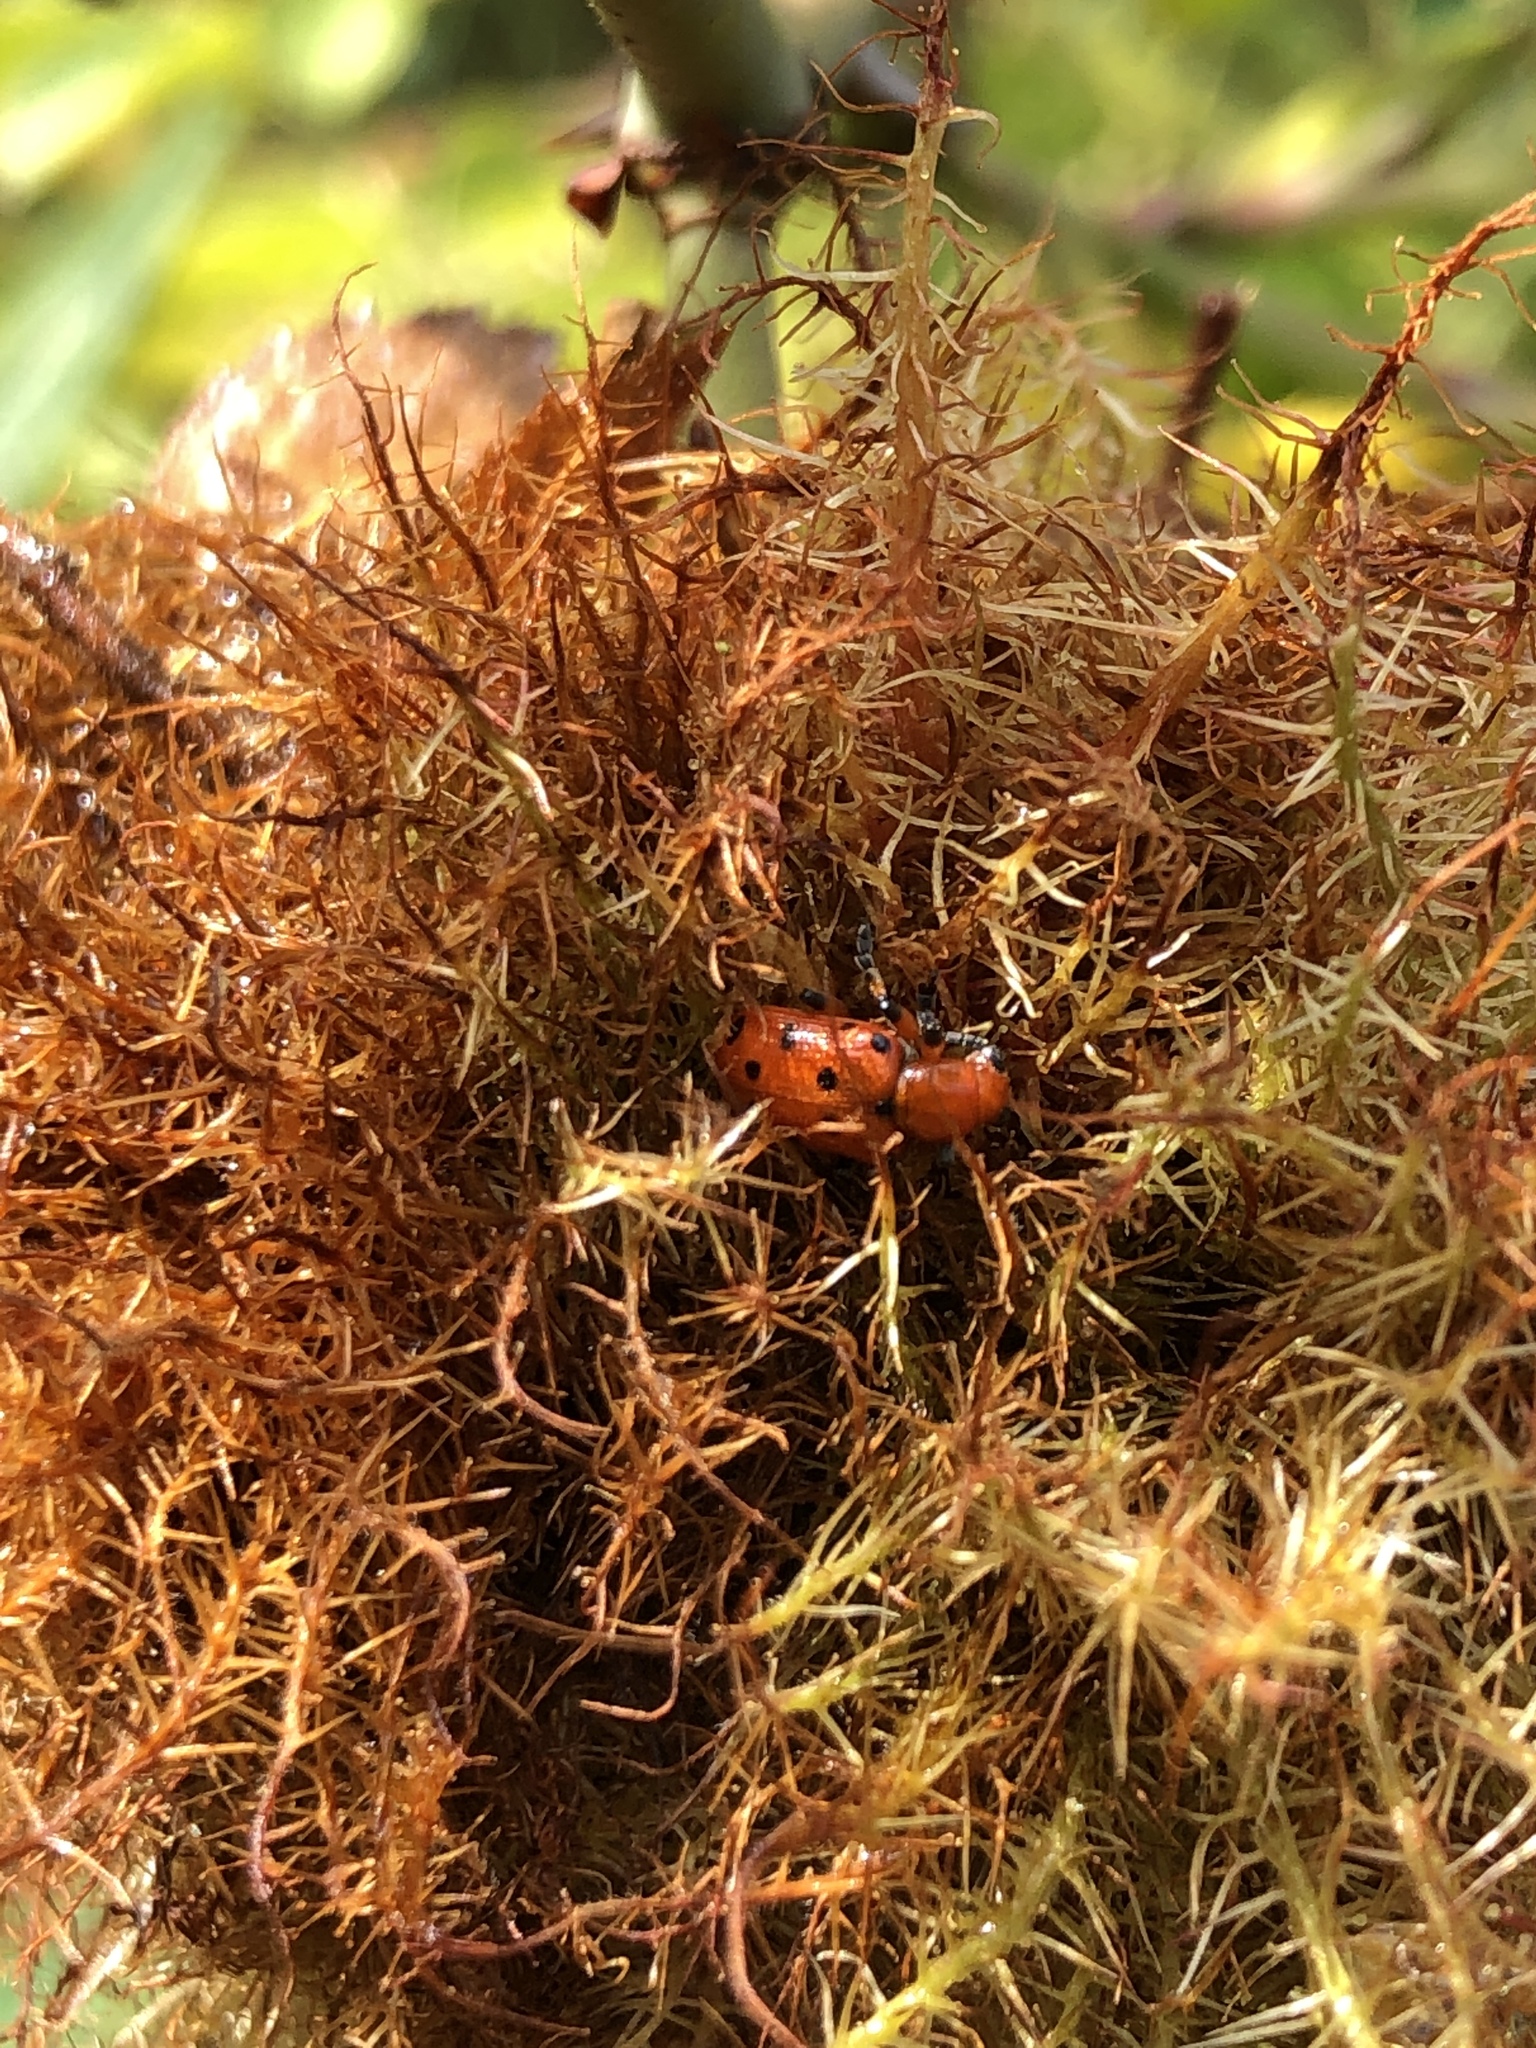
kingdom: Animalia
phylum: Arthropoda
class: Insecta
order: Coleoptera
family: Chrysomelidae
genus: Crioceris
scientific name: Crioceris duodecimpunctata
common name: Twelve-spotted asparagus beetle
